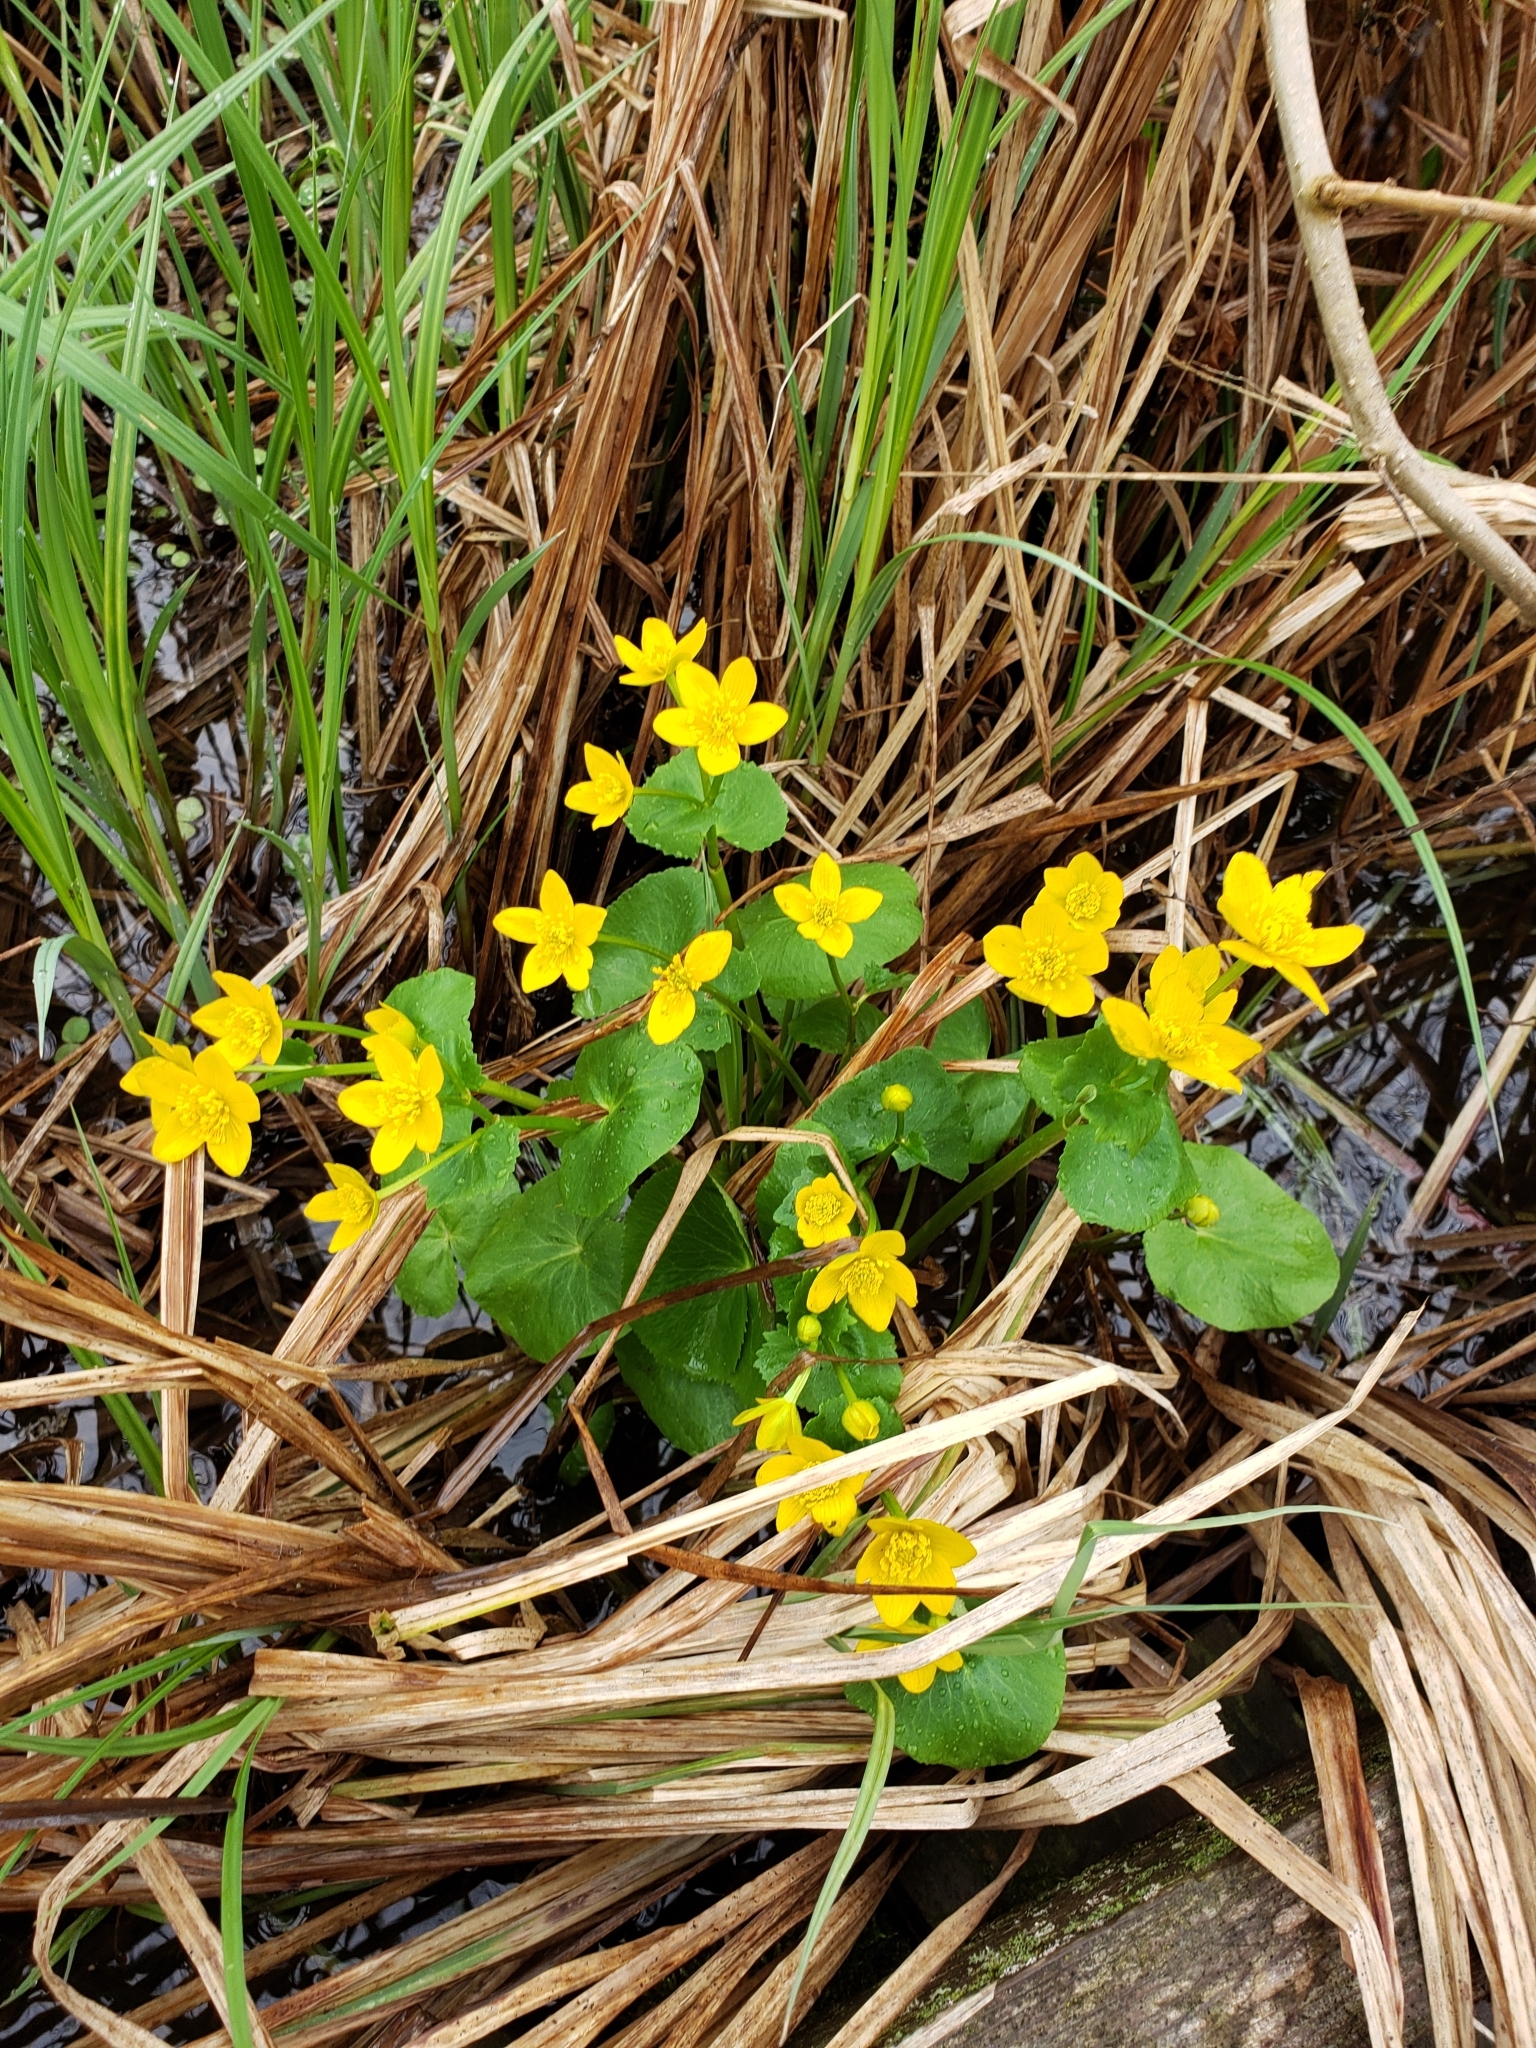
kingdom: Plantae
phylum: Tracheophyta
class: Magnoliopsida
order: Ranunculales
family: Ranunculaceae
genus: Caltha
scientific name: Caltha palustris
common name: Marsh marigold
